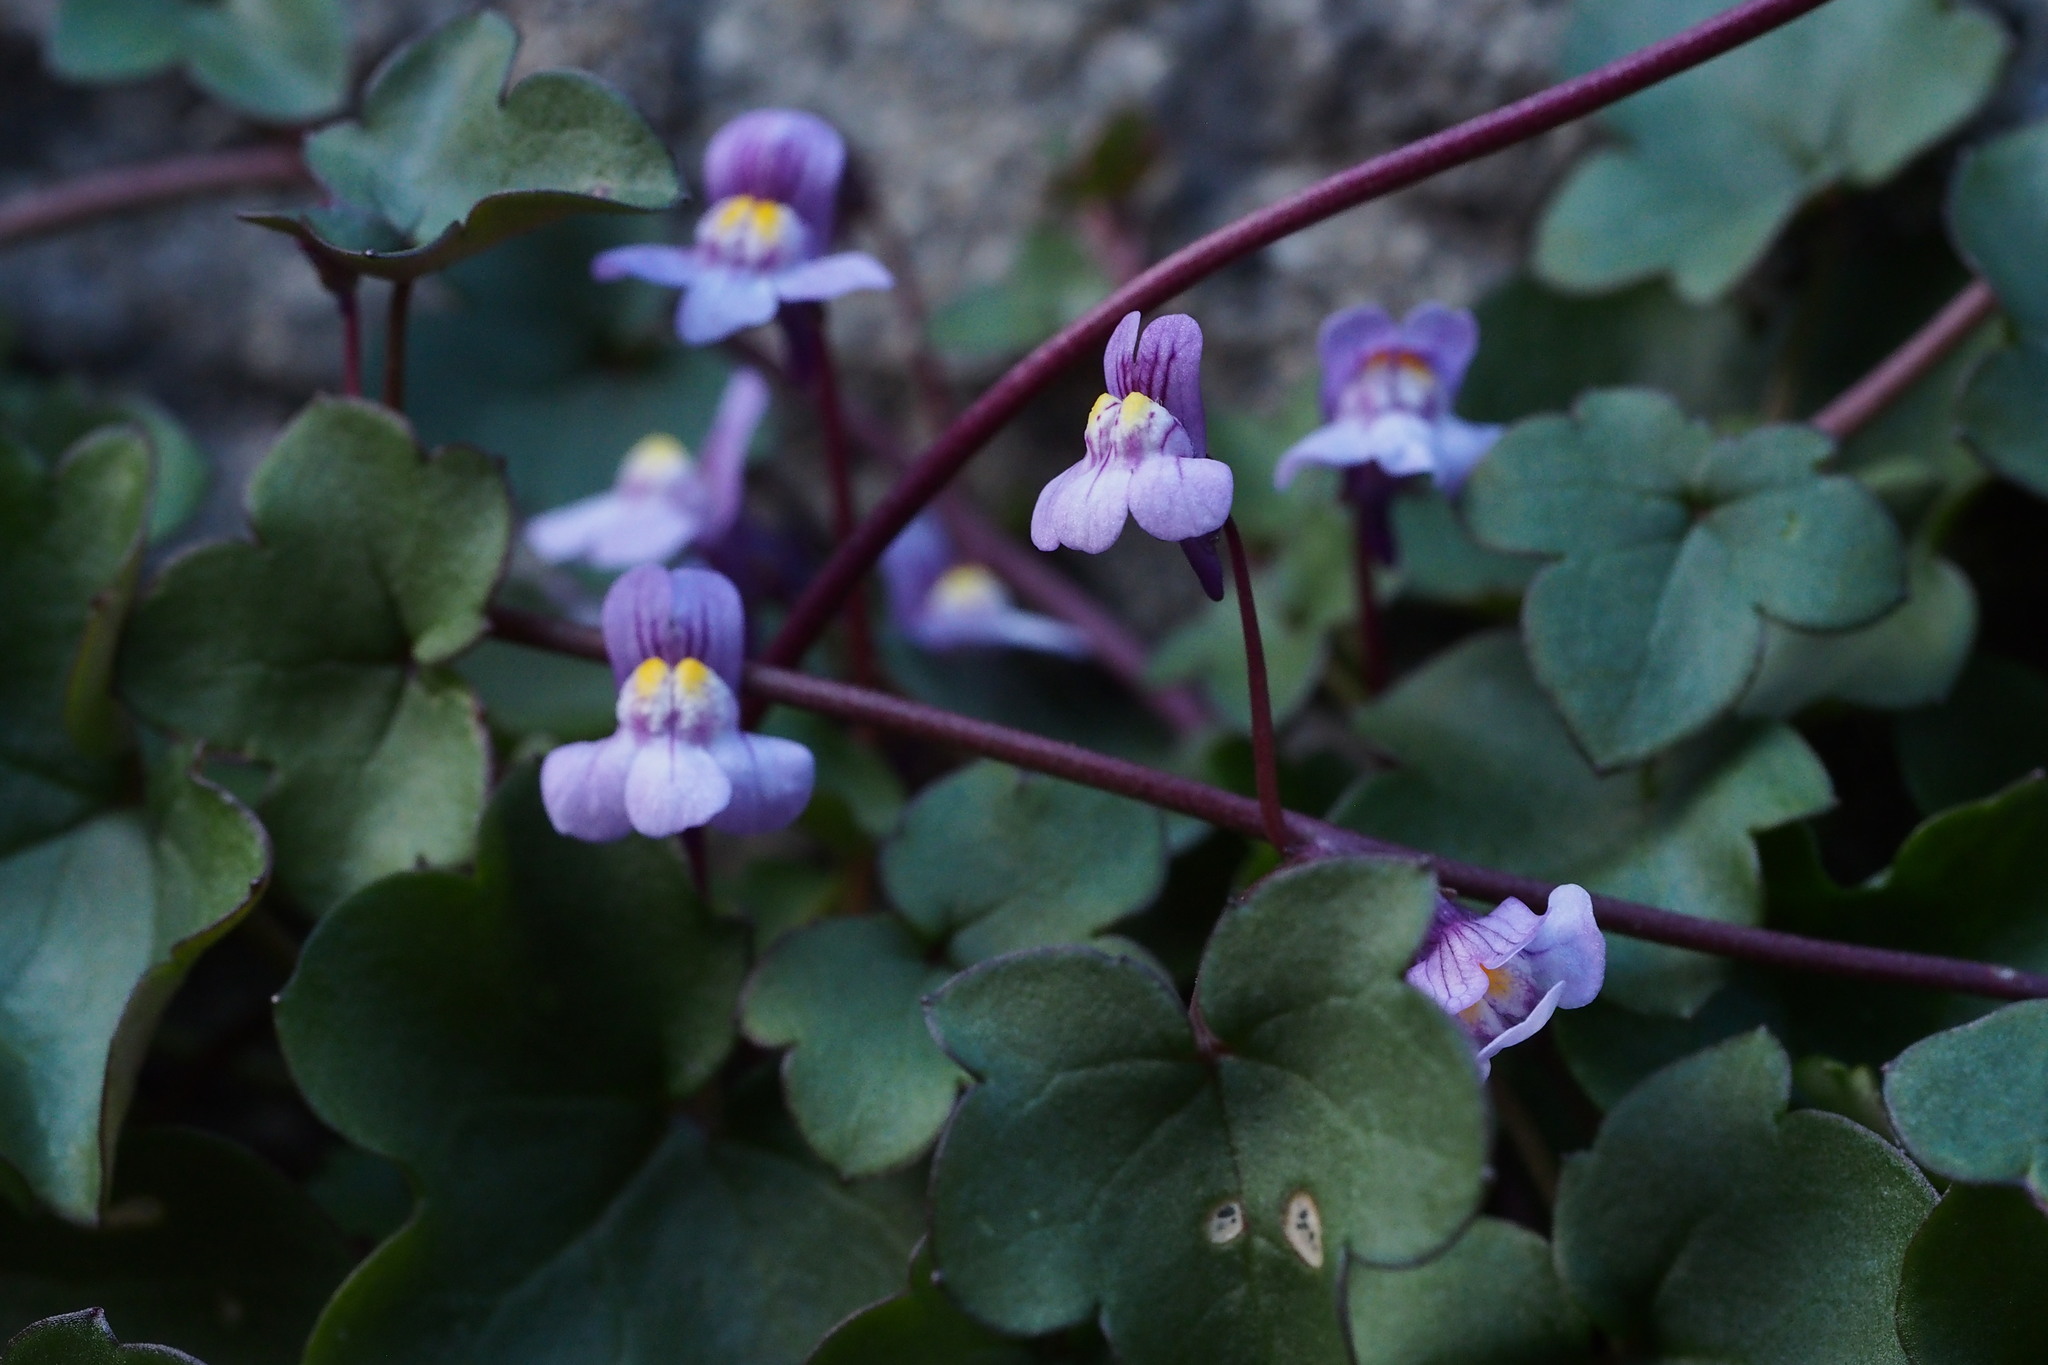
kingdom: Plantae
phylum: Tracheophyta
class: Magnoliopsida
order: Lamiales
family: Plantaginaceae
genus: Cymbalaria
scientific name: Cymbalaria muralis
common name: Ivy-leaved toadflax
